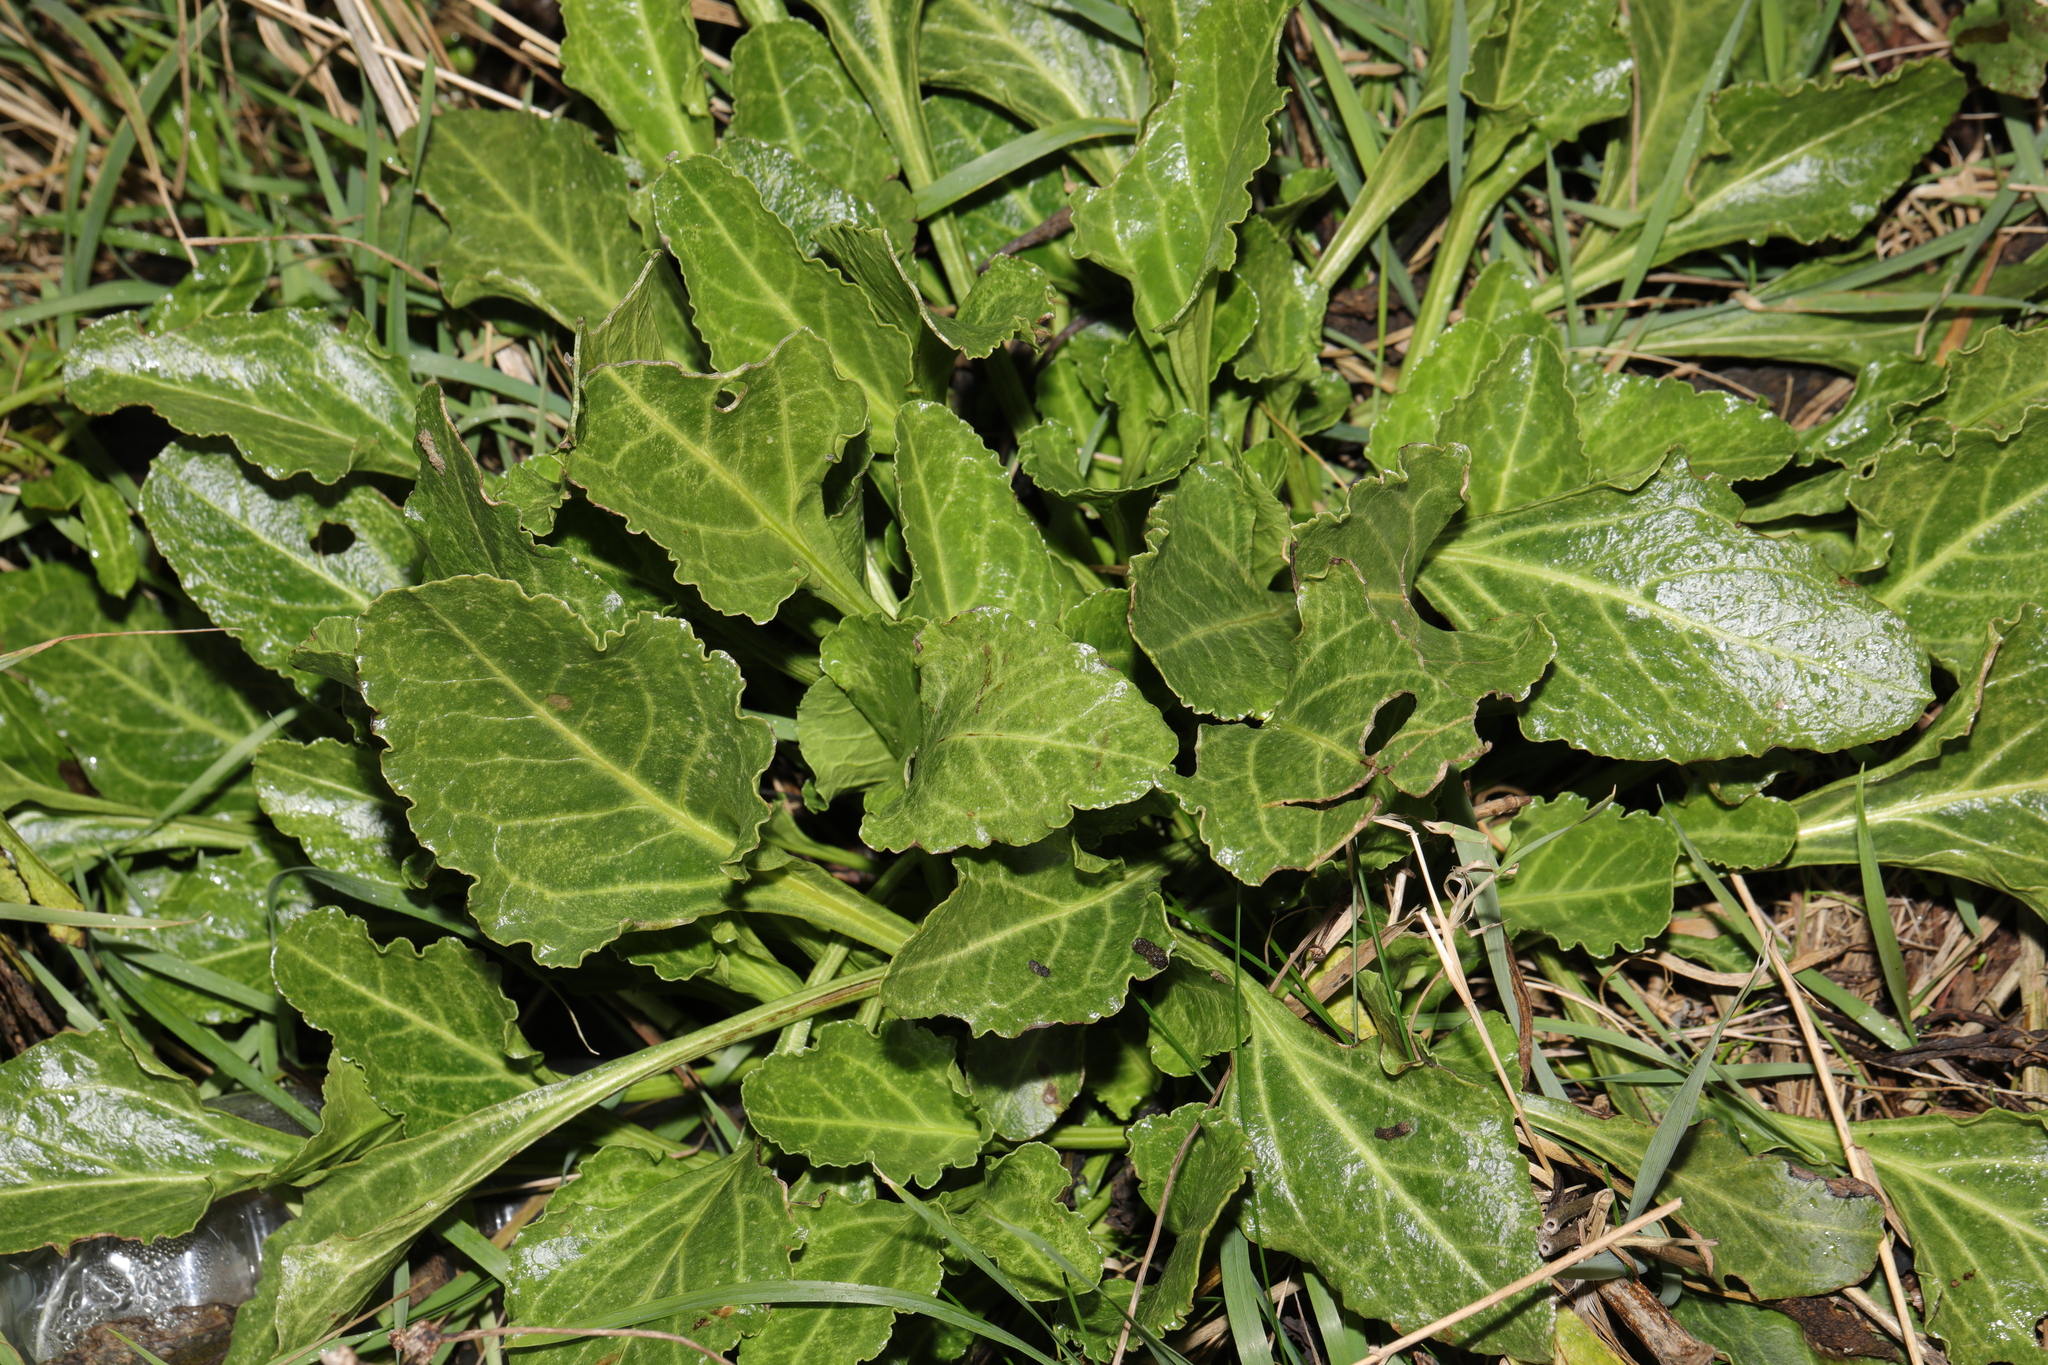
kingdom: Plantae
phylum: Tracheophyta
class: Magnoliopsida
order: Caryophyllales
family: Amaranthaceae
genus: Beta
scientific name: Beta vulgaris
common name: Beet
